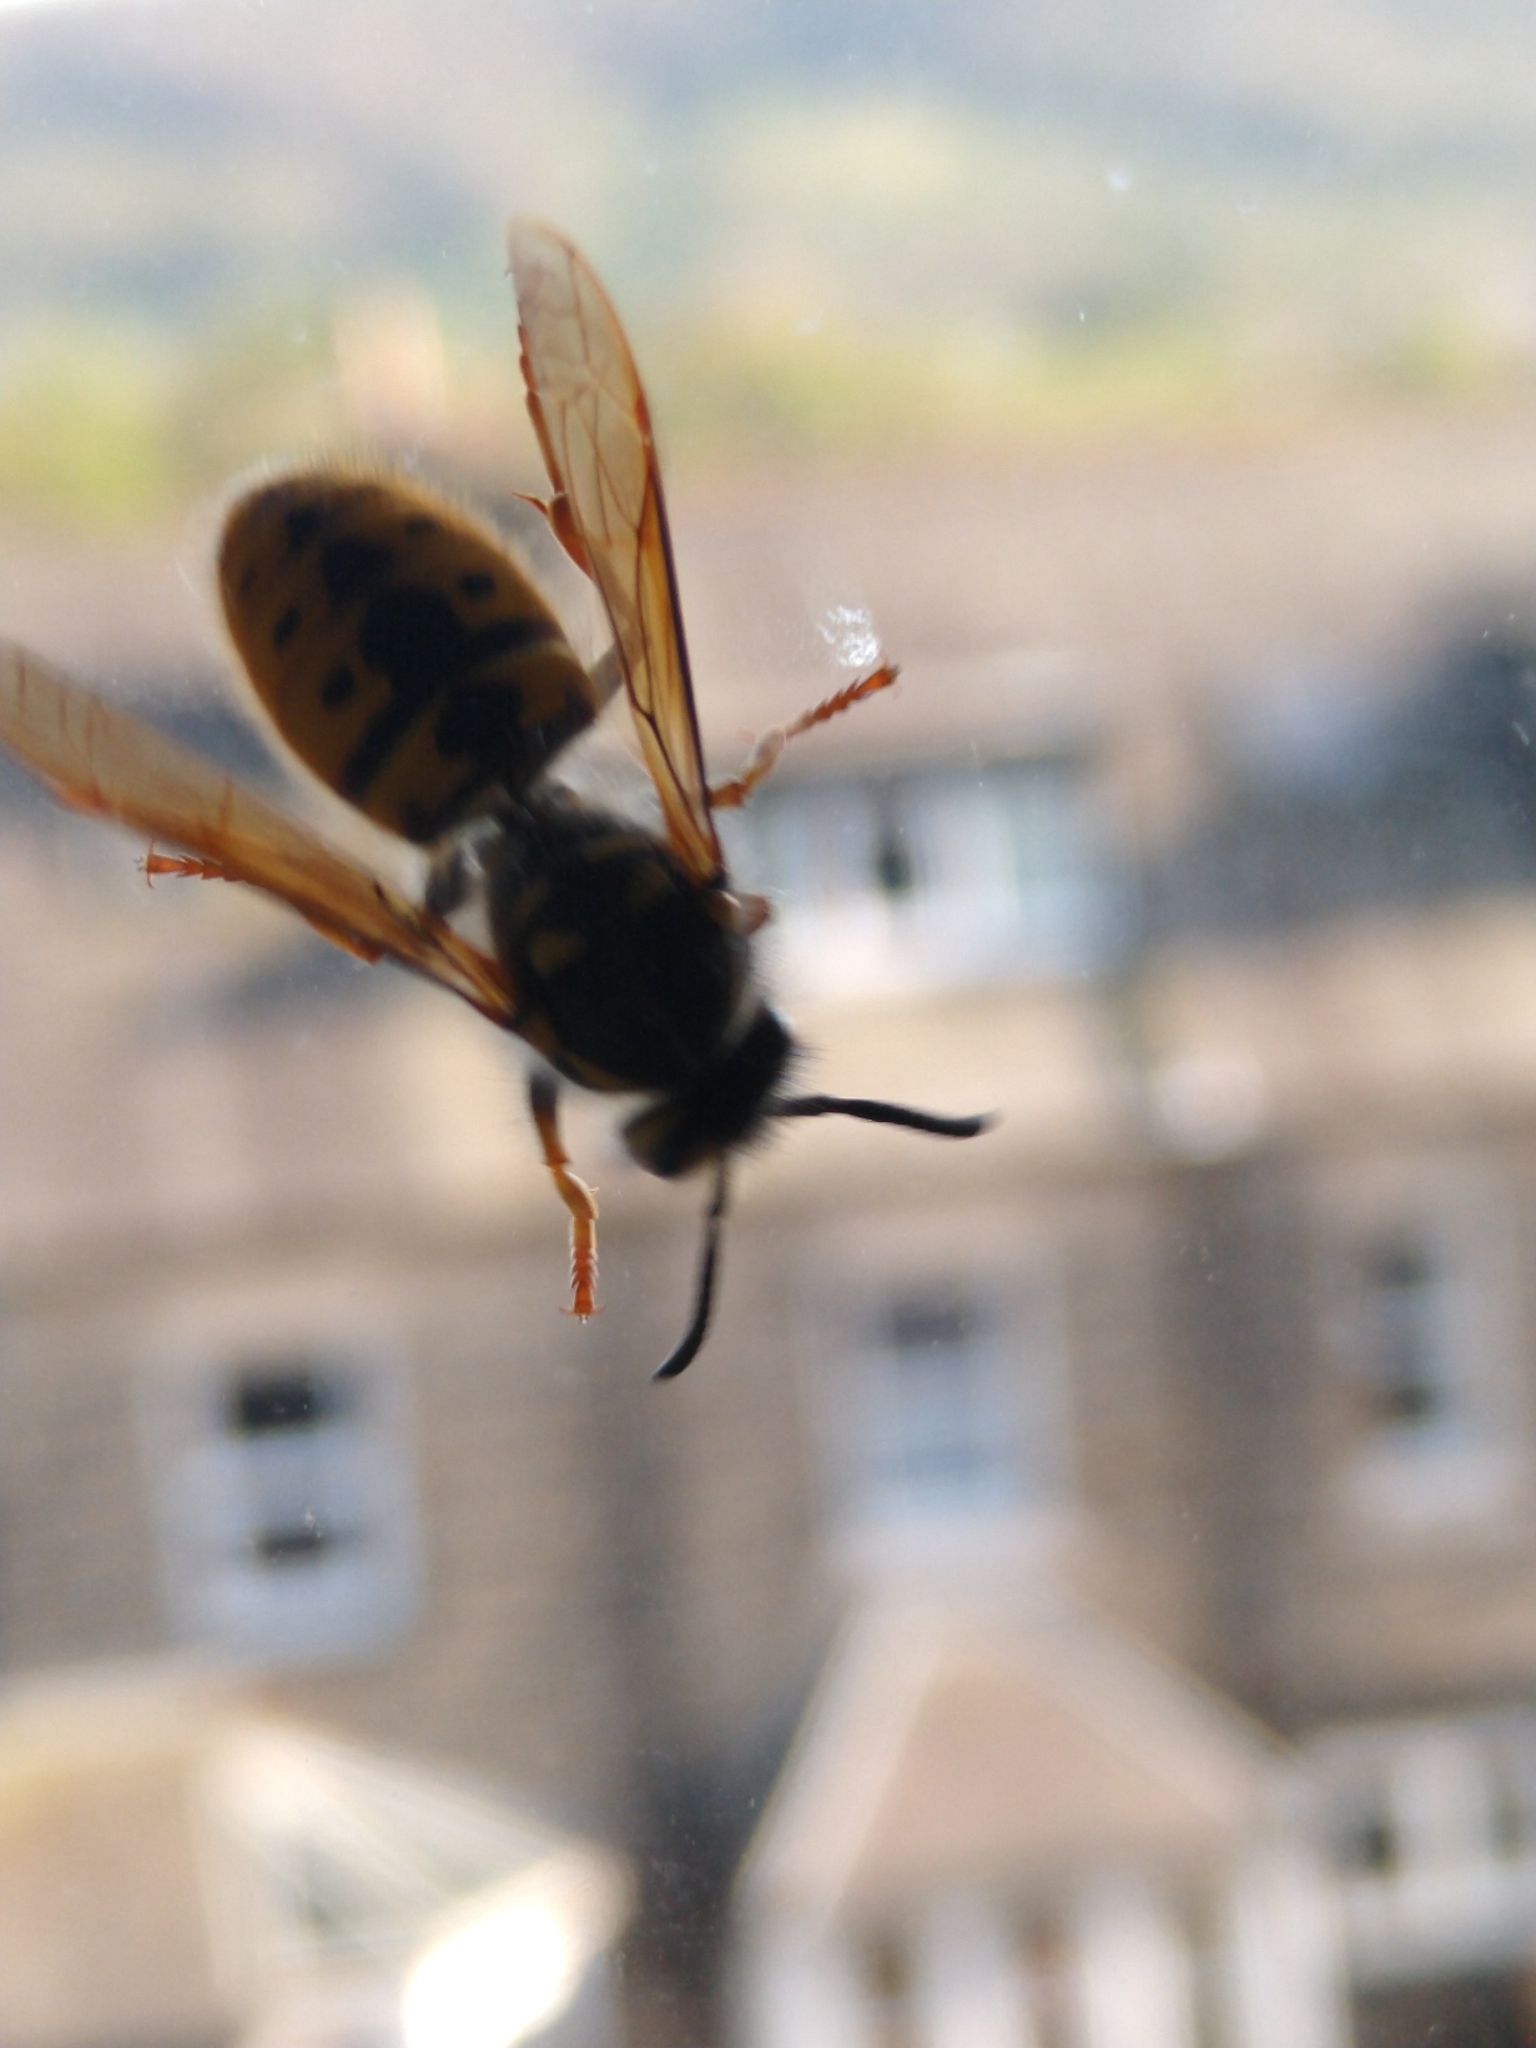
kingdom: Animalia
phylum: Arthropoda
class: Insecta
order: Hymenoptera
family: Vespidae
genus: Vespula
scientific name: Vespula germanica
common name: German wasp
